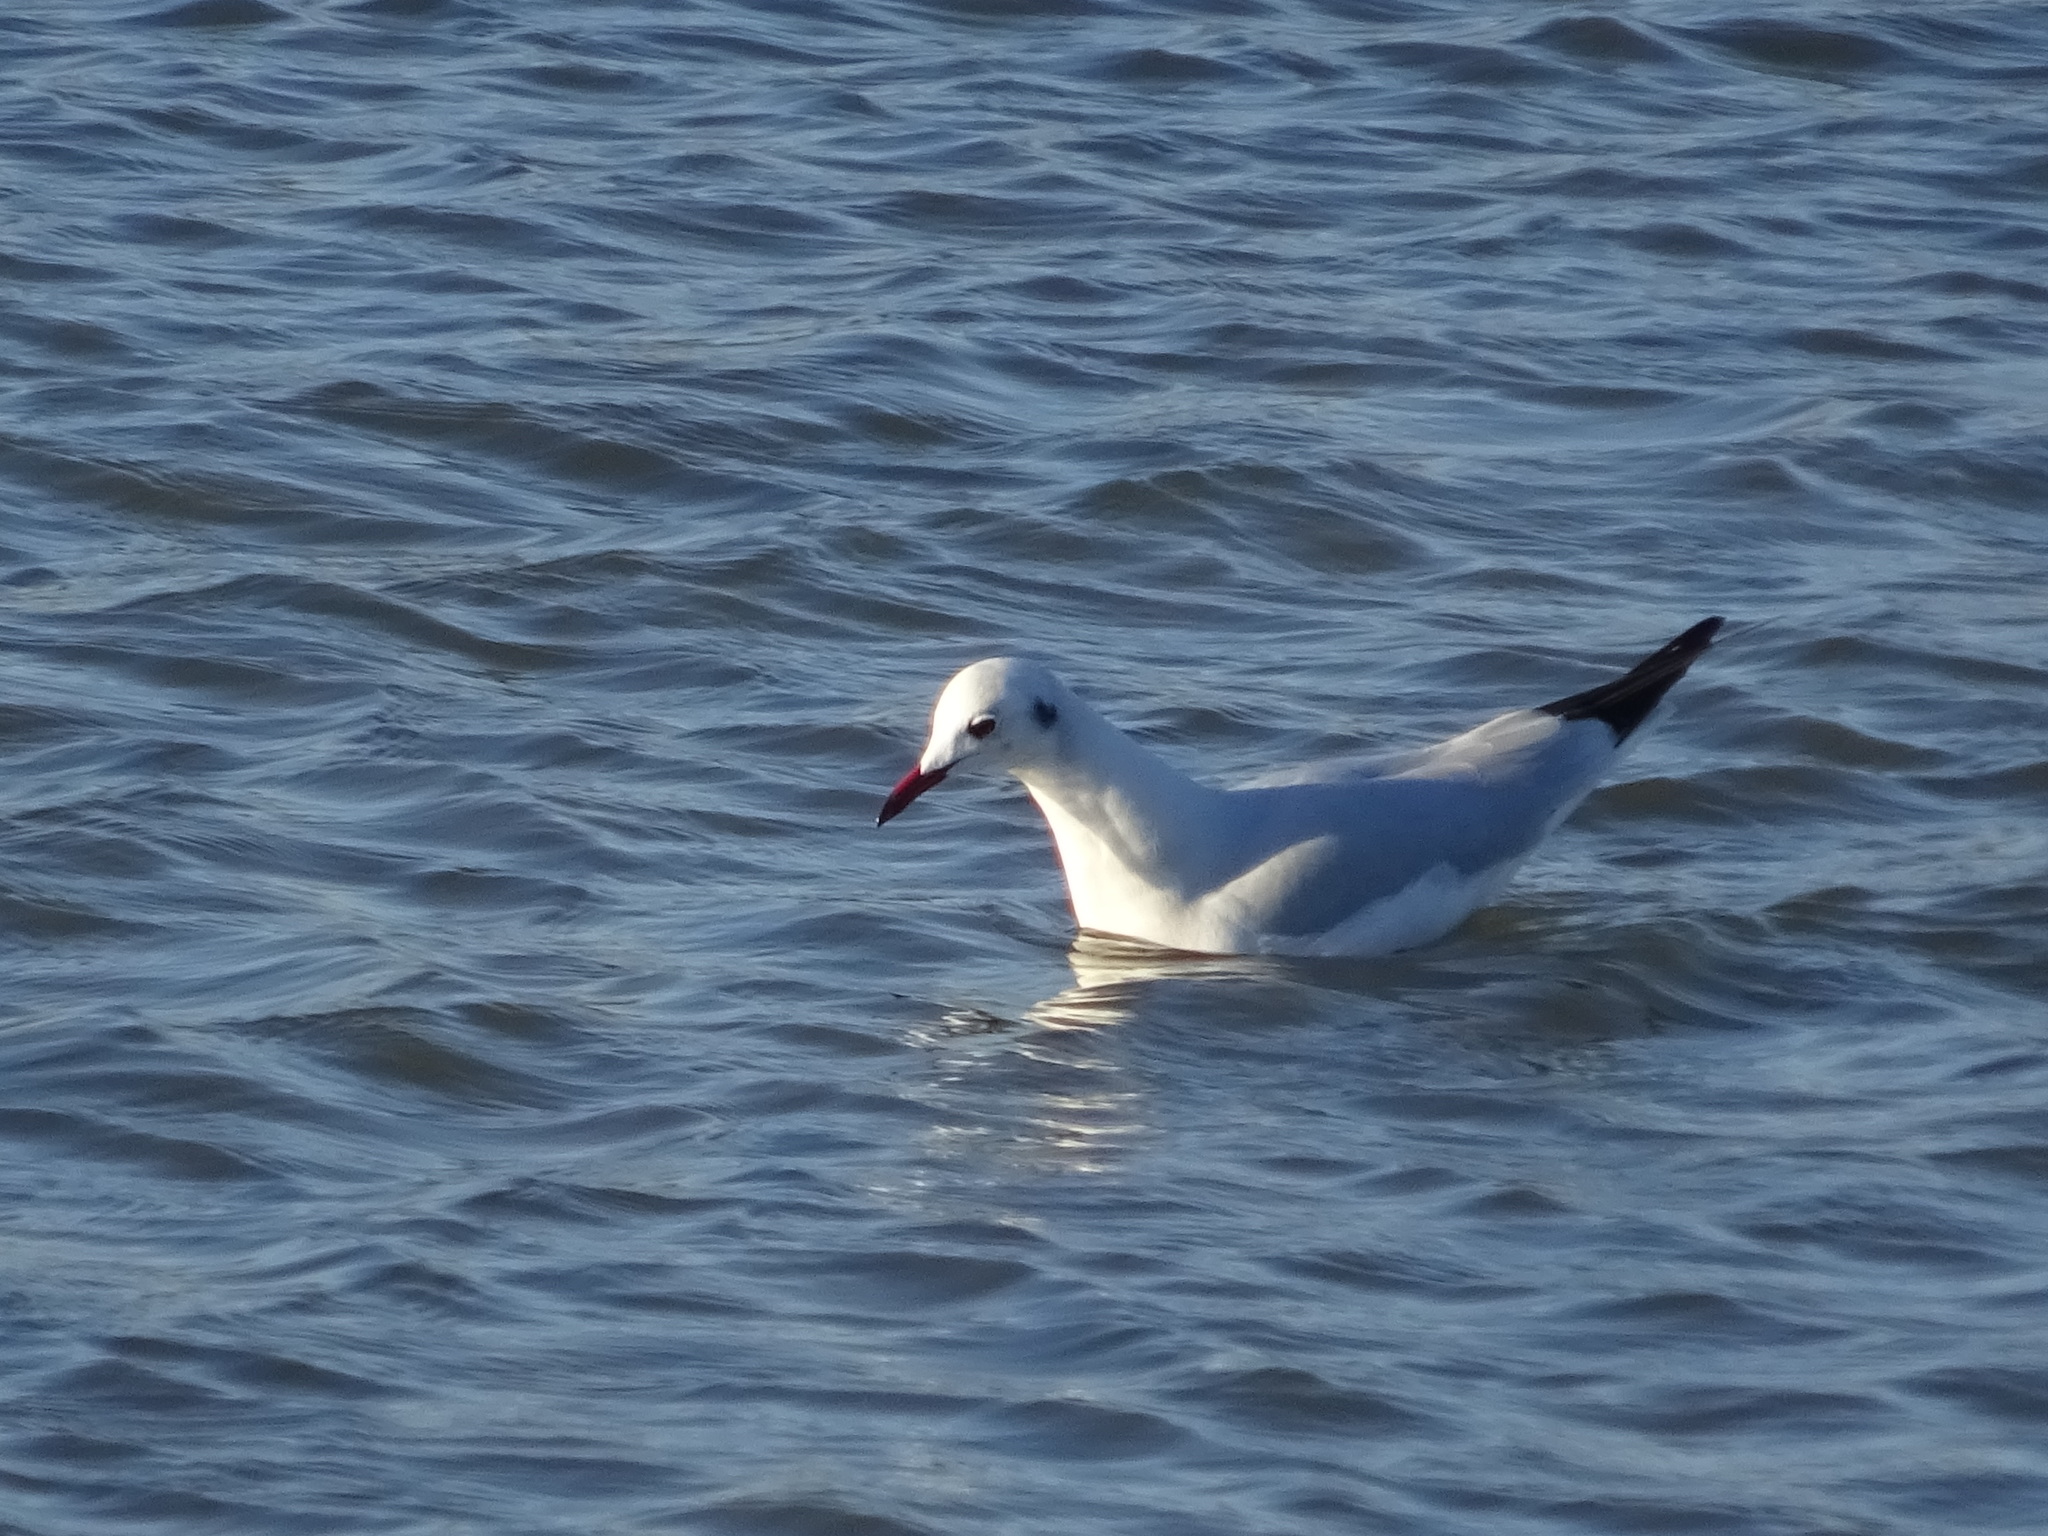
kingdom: Animalia
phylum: Chordata
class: Aves
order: Charadriiformes
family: Laridae
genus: Chroicocephalus
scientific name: Chroicocephalus ridibundus
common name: Black-headed gull
